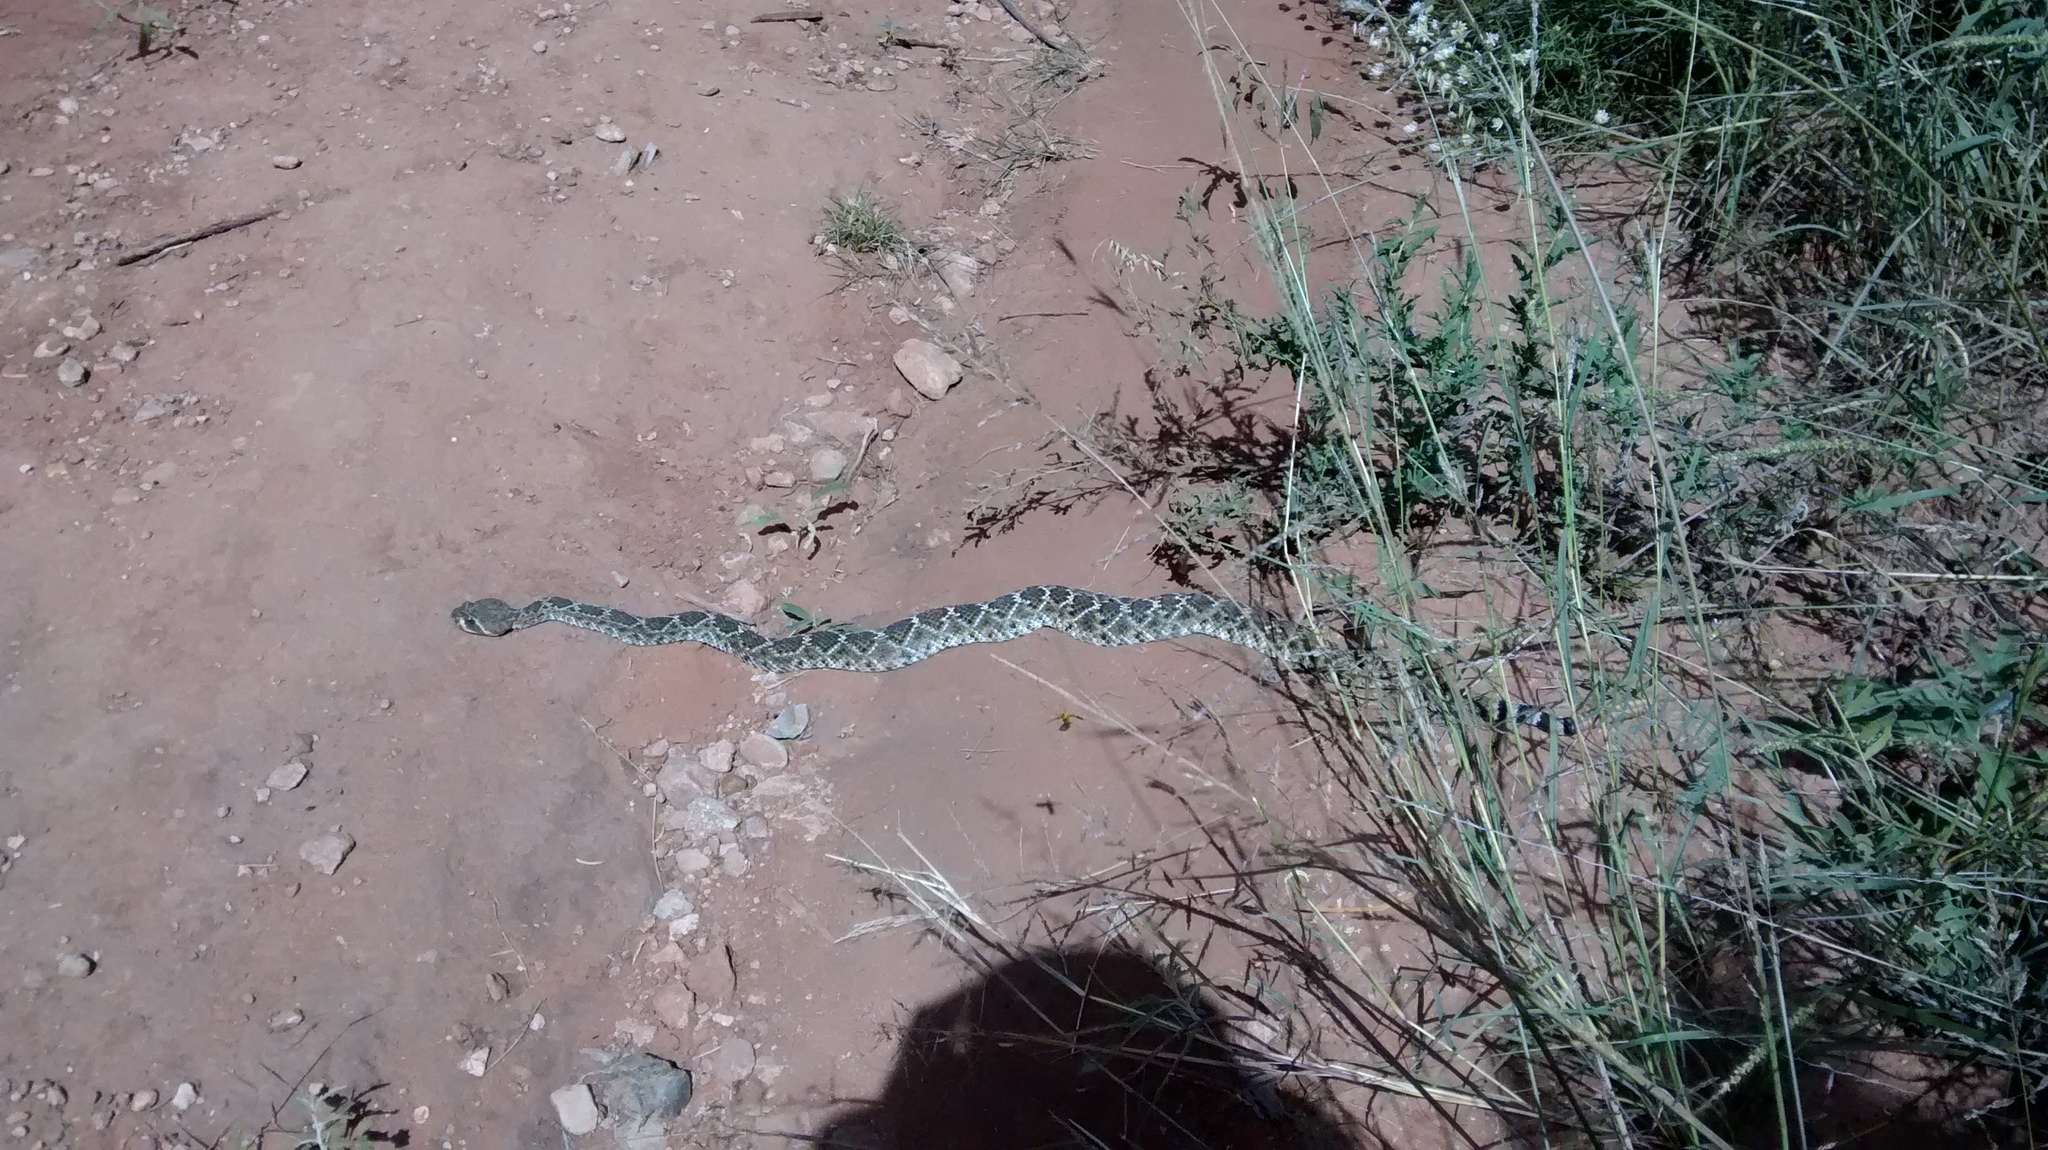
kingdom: Animalia
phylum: Chordata
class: Squamata
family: Viperidae
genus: Crotalus
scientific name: Crotalus atrox
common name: Western diamond-backed rattlesnake
